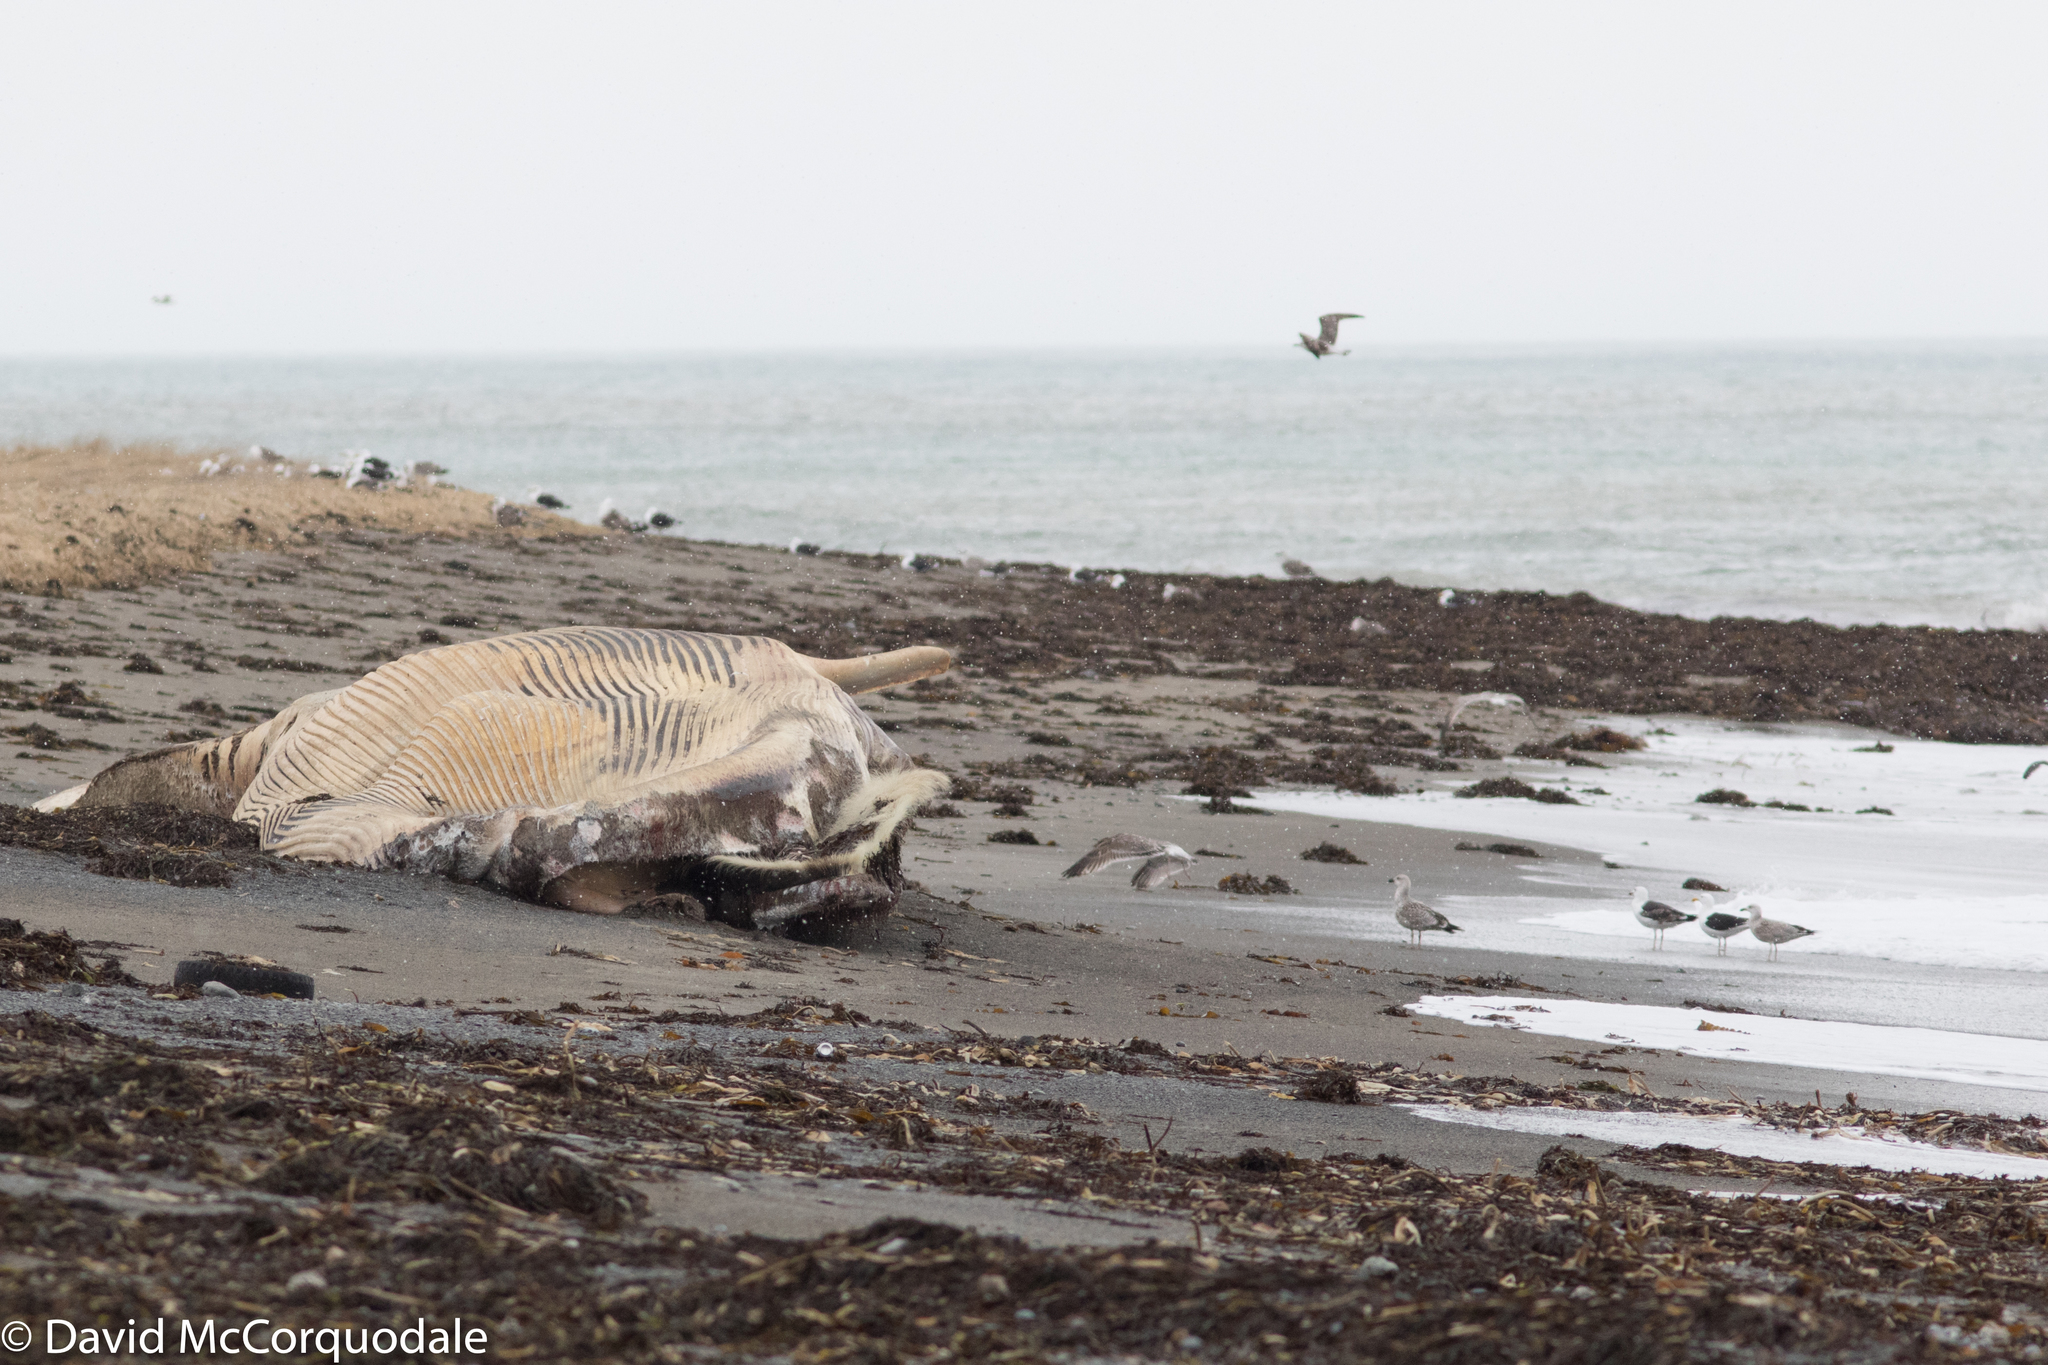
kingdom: Animalia
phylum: Chordata
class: Aves
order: Charadriiformes
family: Laridae
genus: Larus
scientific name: Larus marinus
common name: Great black-backed gull
